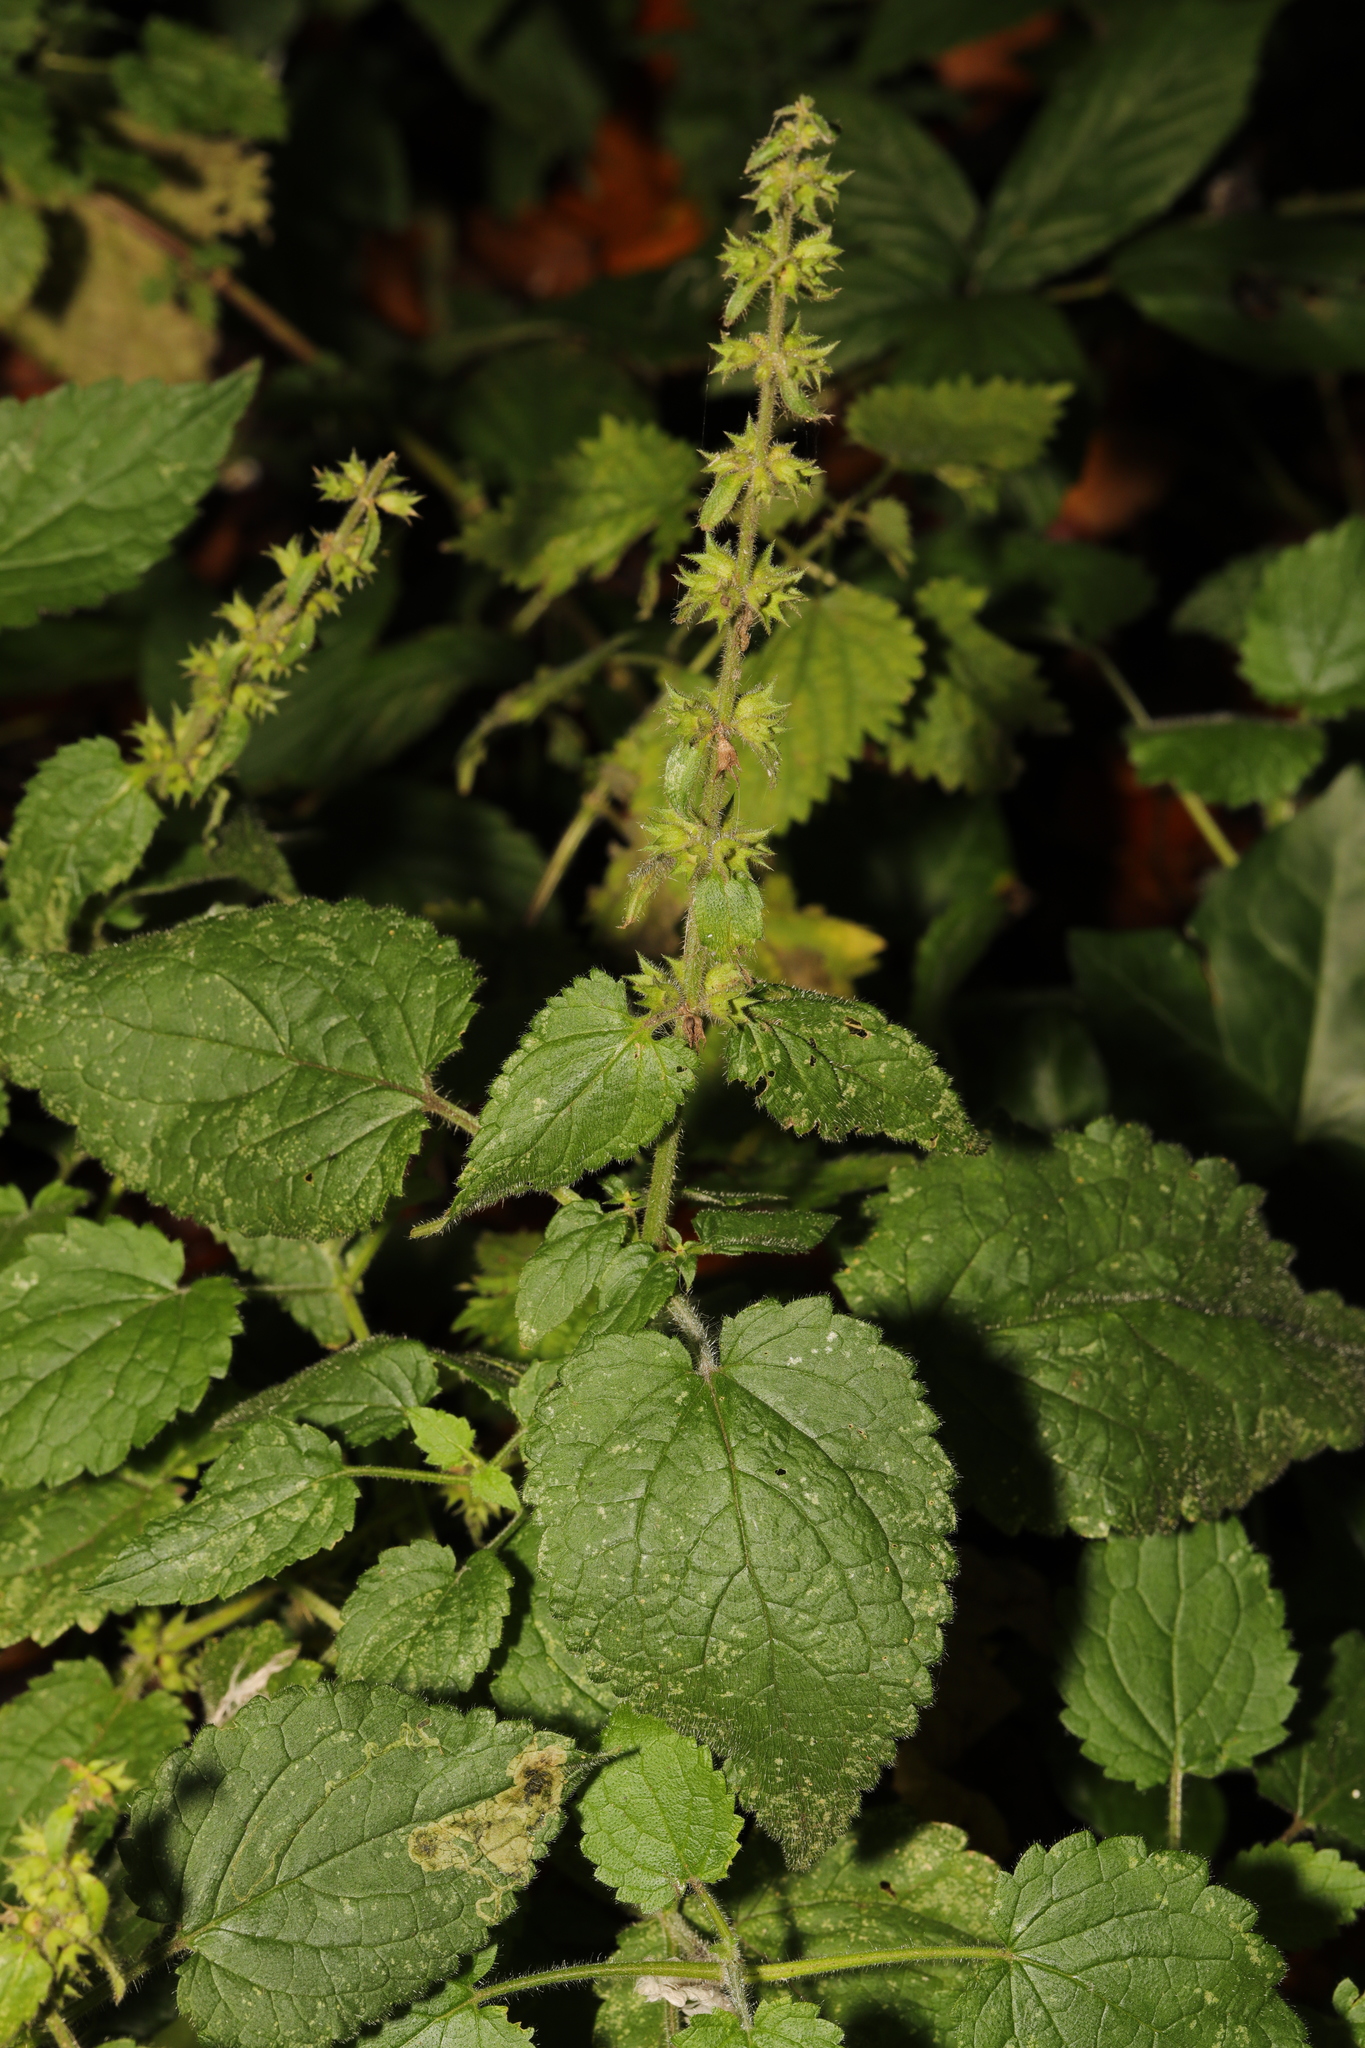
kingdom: Plantae
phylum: Tracheophyta
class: Magnoliopsida
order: Lamiales
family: Lamiaceae
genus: Stachys
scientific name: Stachys sylvatica
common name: Hedge woundwort
